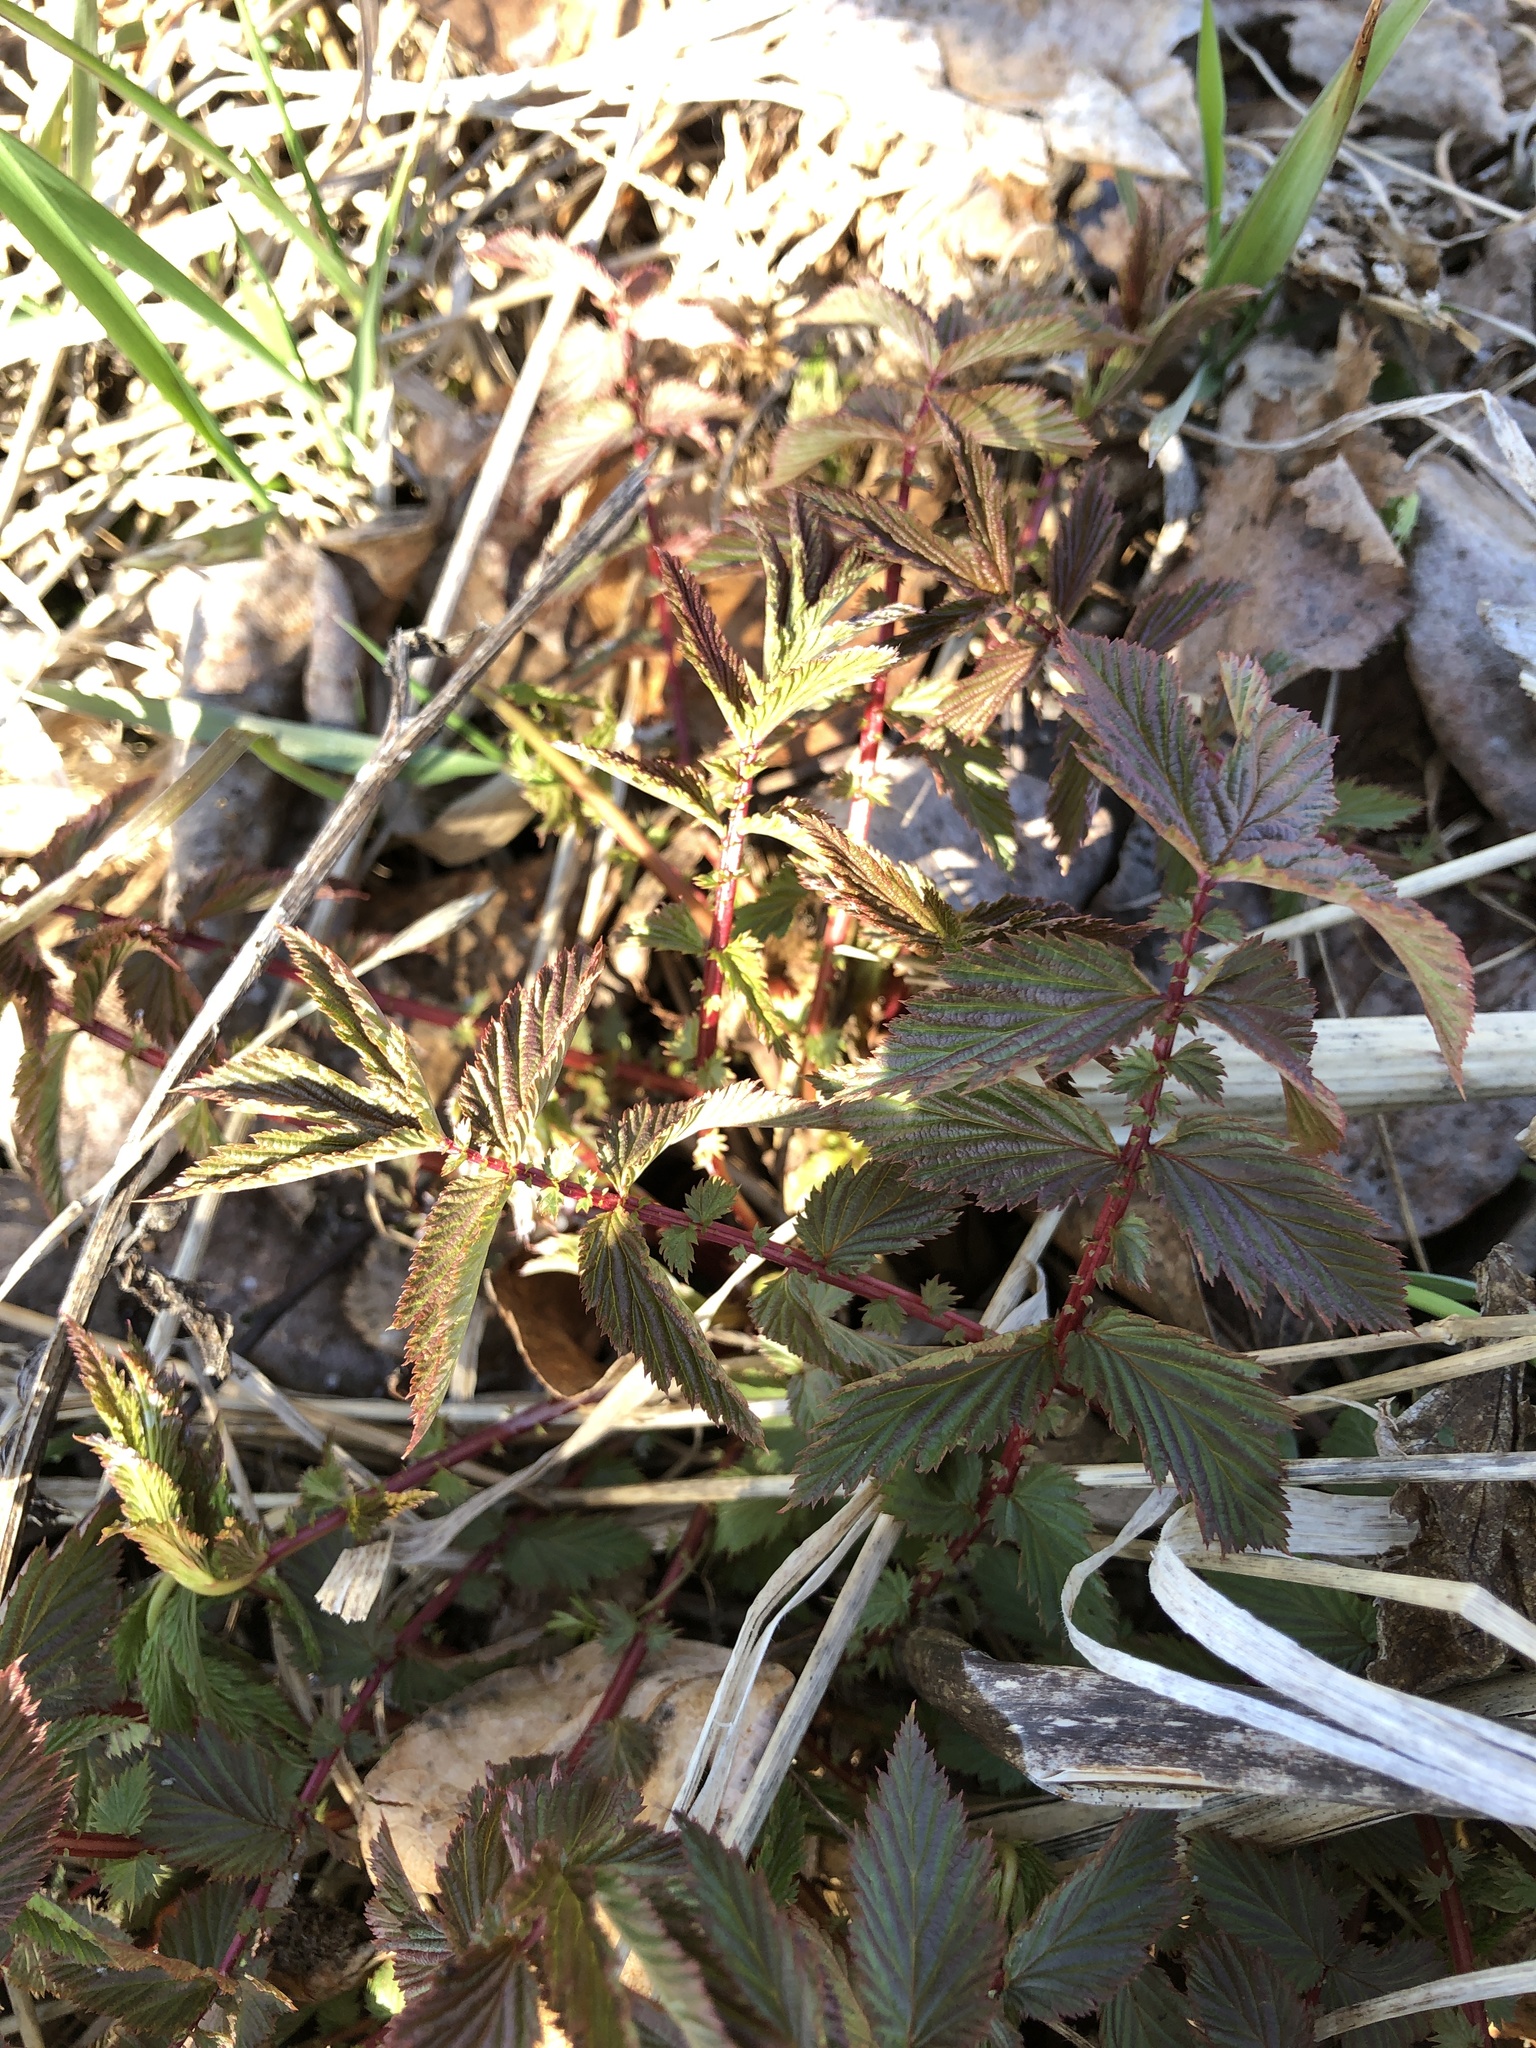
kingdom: Plantae
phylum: Tracheophyta
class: Magnoliopsida
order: Rosales
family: Rosaceae
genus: Filipendula
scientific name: Filipendula ulmaria
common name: Meadowsweet
